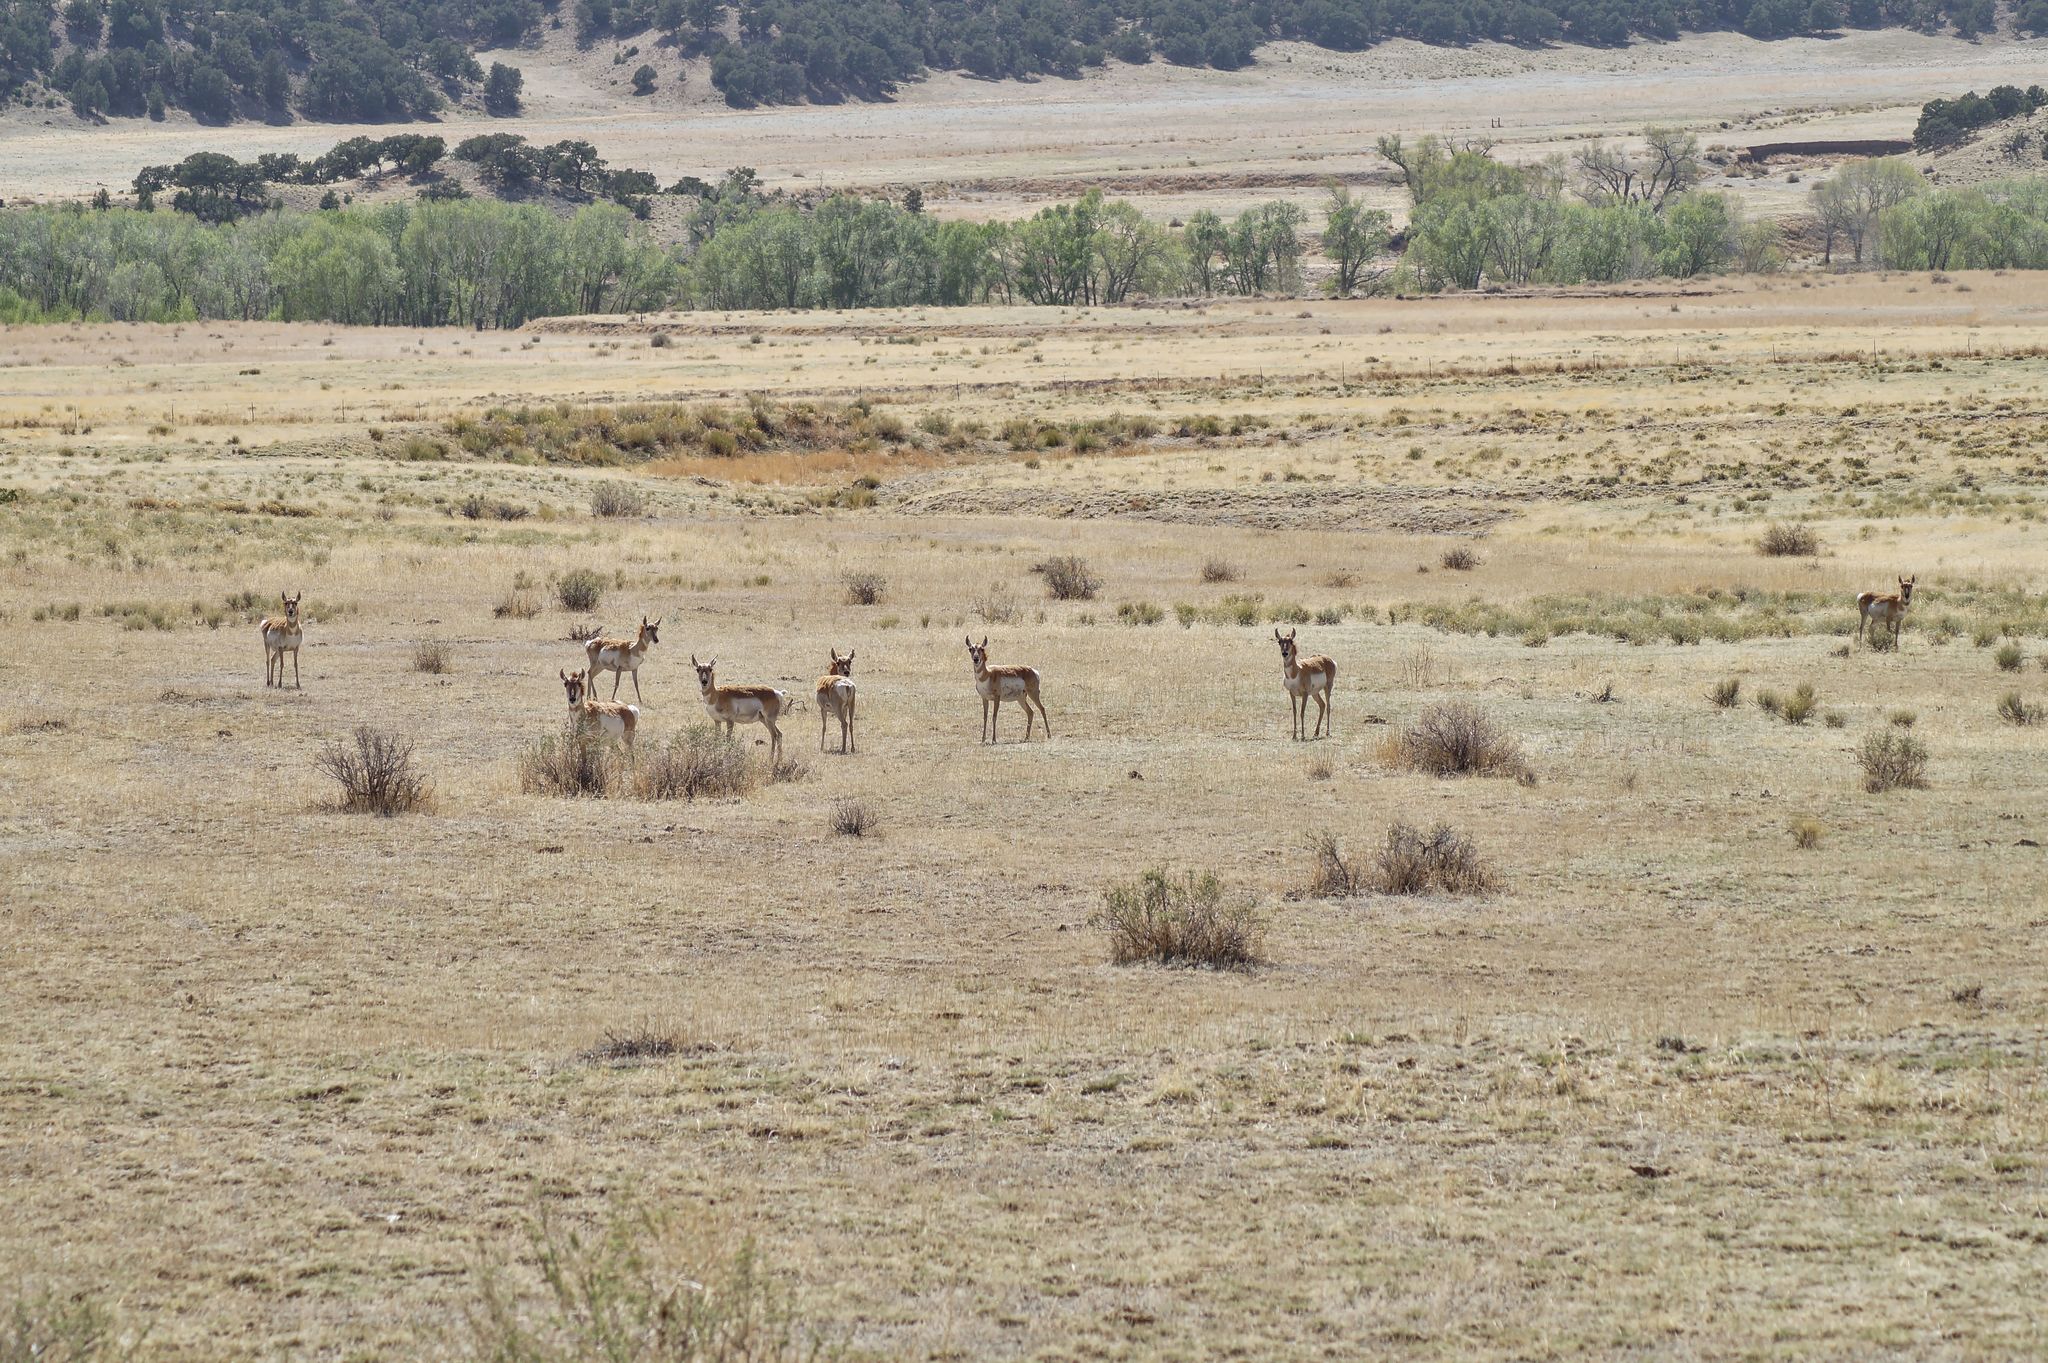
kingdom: Animalia
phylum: Chordata
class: Mammalia
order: Artiodactyla
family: Antilocapridae
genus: Antilocapra
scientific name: Antilocapra americana
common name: Pronghorn
